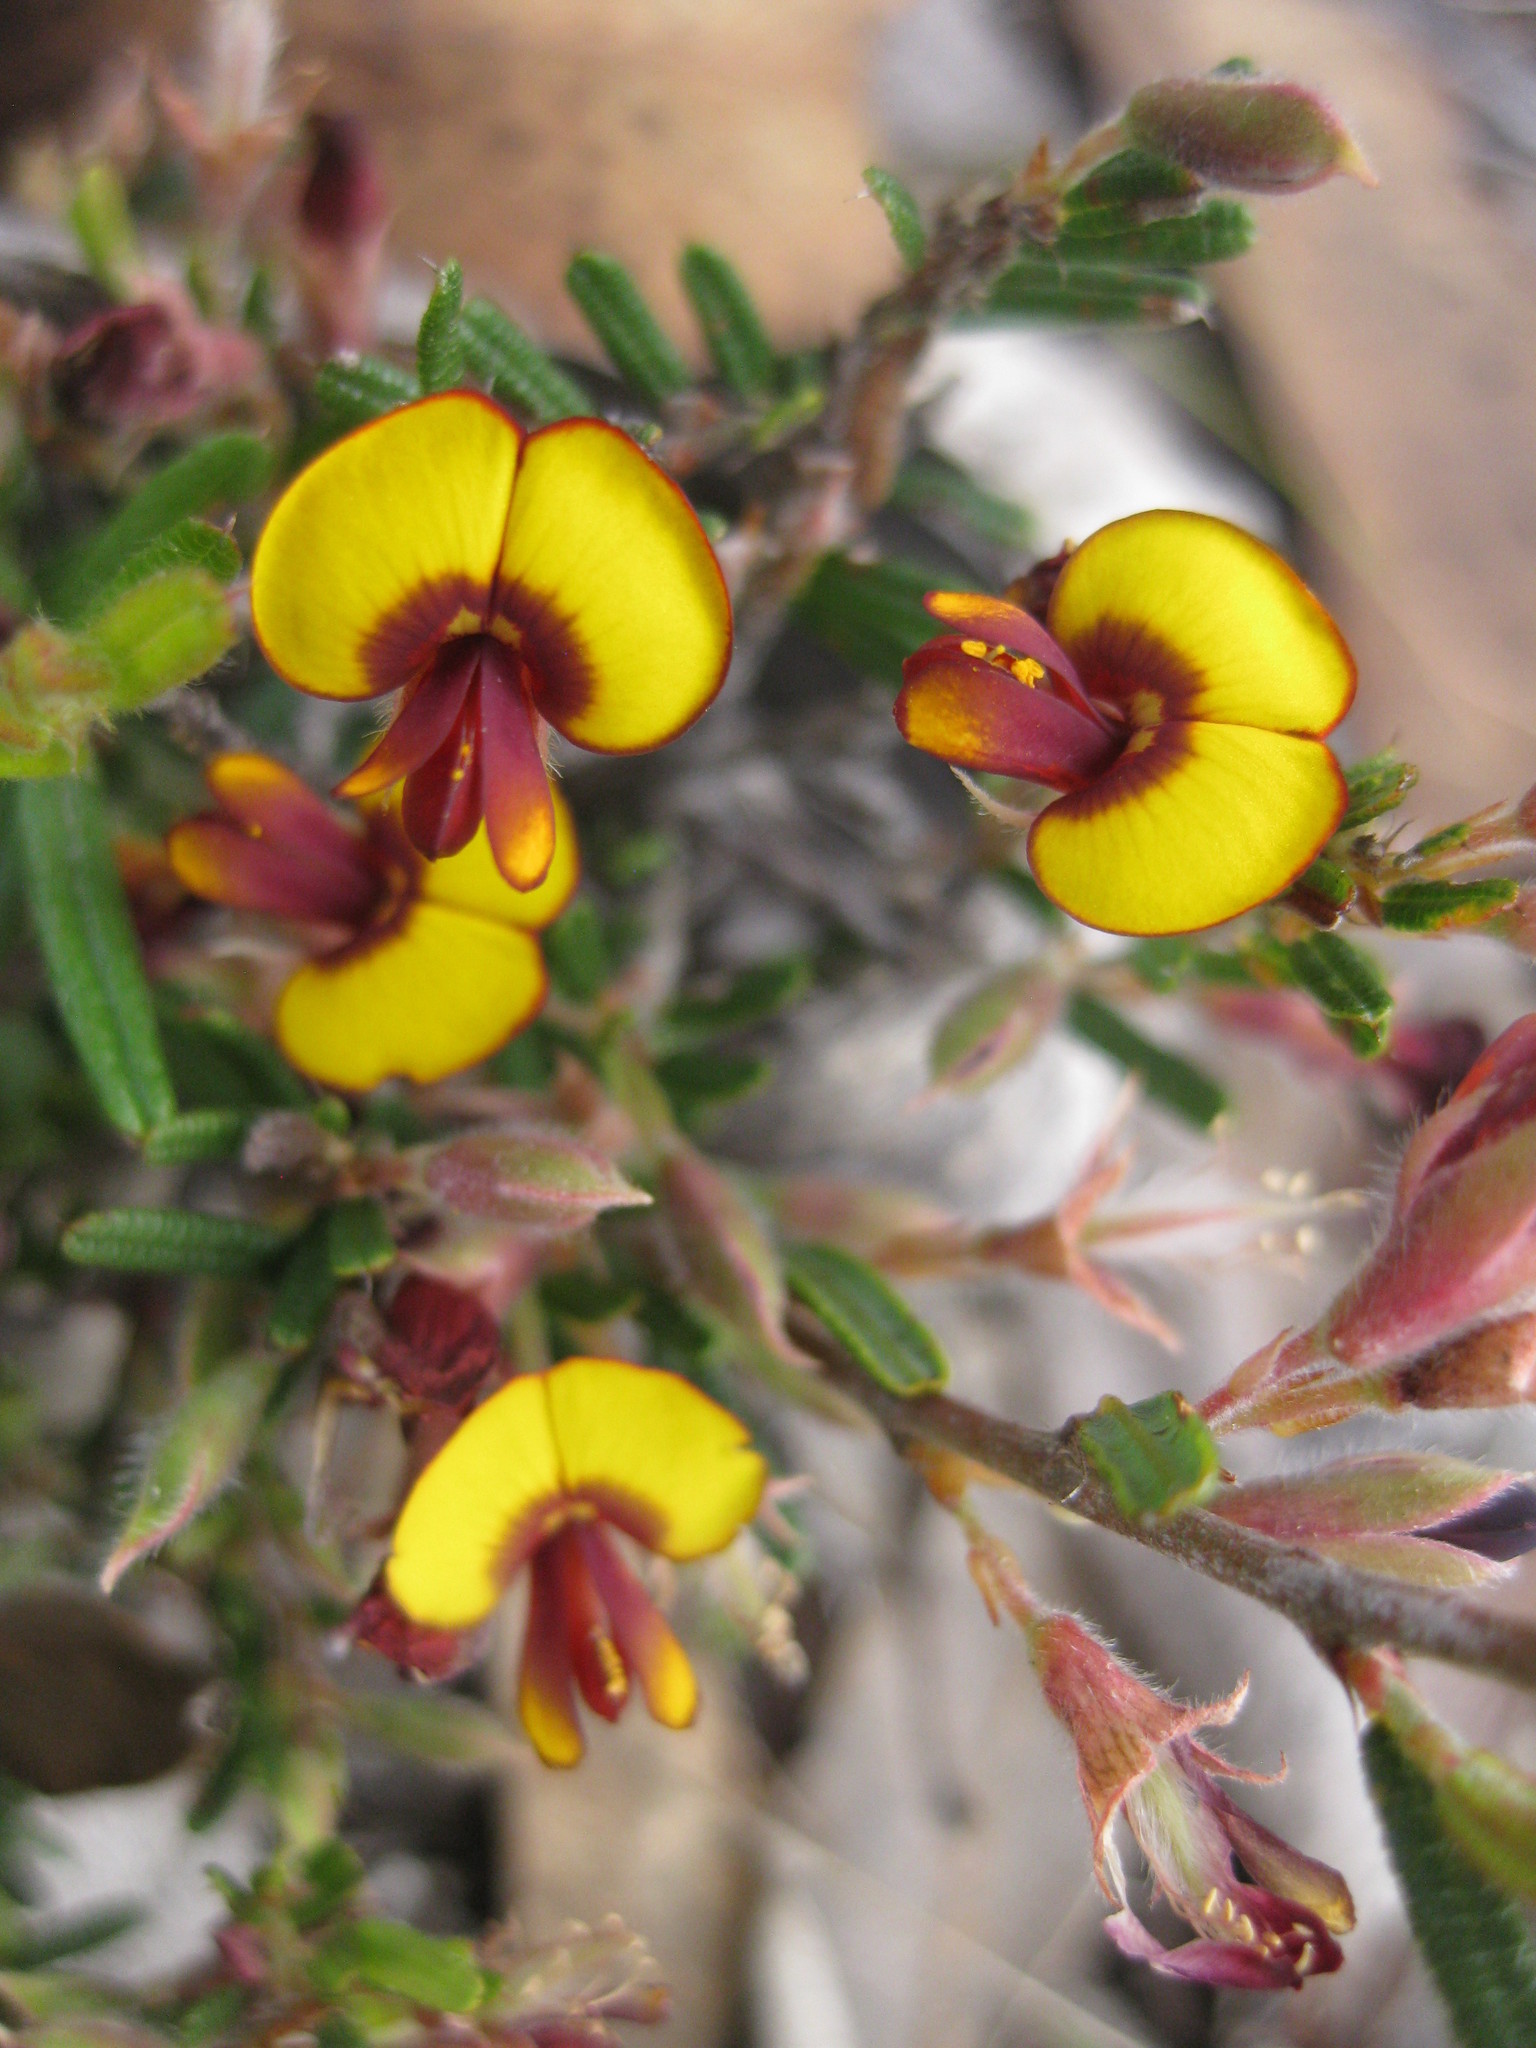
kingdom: Plantae
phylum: Tracheophyta
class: Magnoliopsida
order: Fabales
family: Fabaceae
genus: Bossiaea
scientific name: Bossiaea eriocarpa
